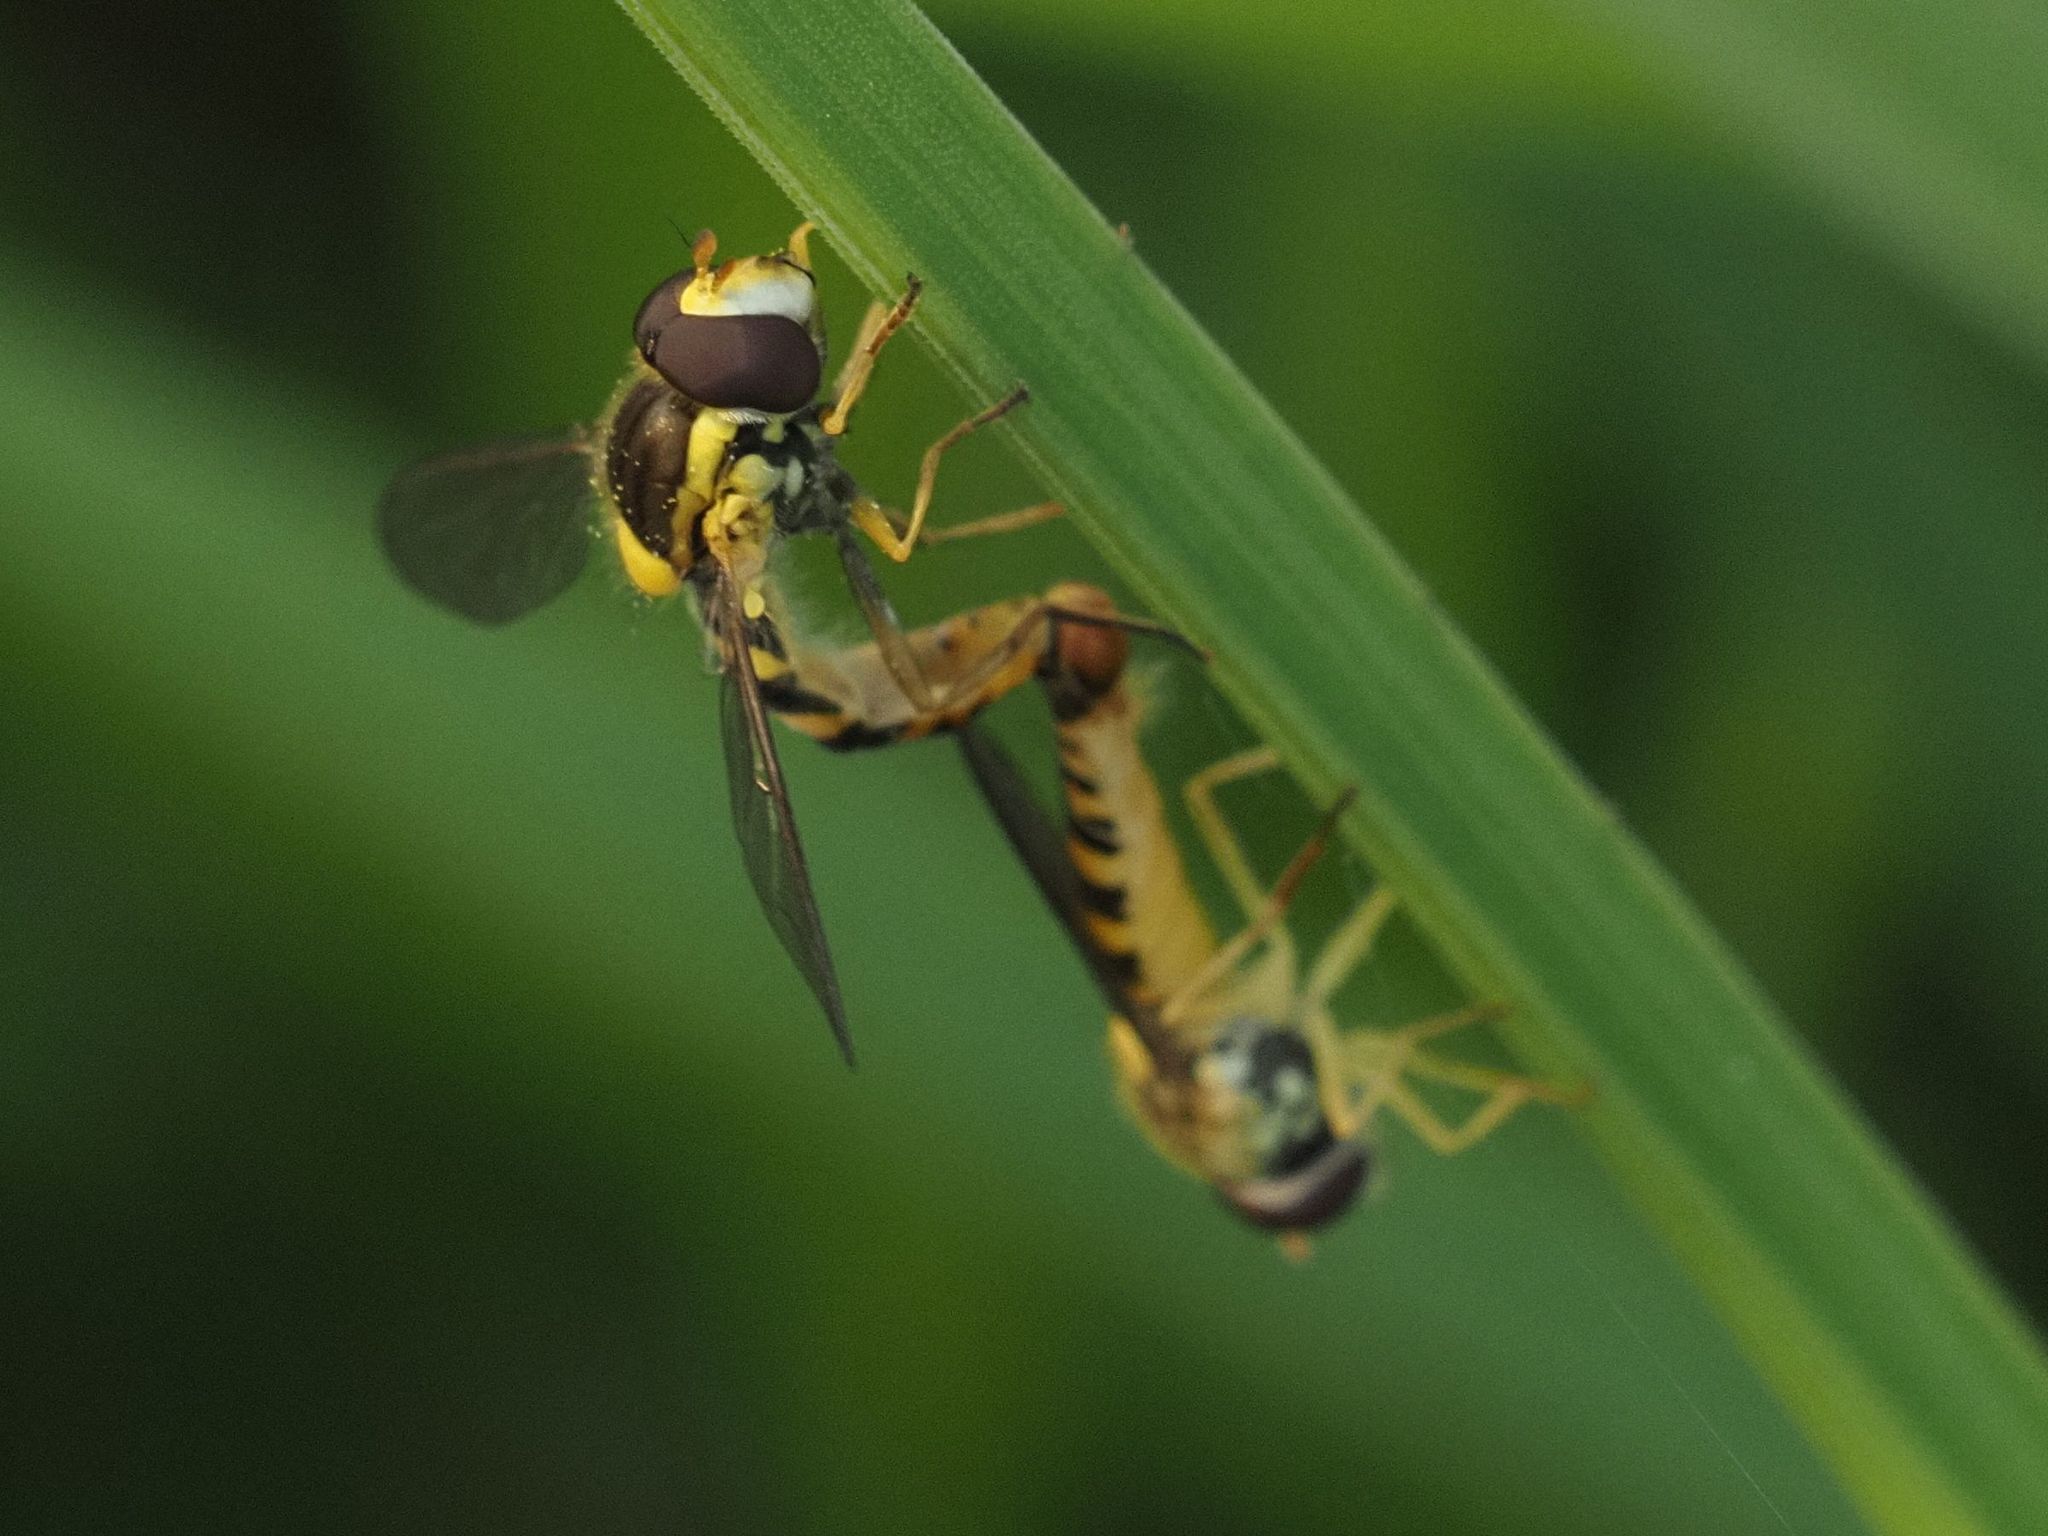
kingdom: Animalia
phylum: Arthropoda
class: Insecta
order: Diptera
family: Syrphidae
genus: Sphaerophoria
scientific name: Sphaerophoria
